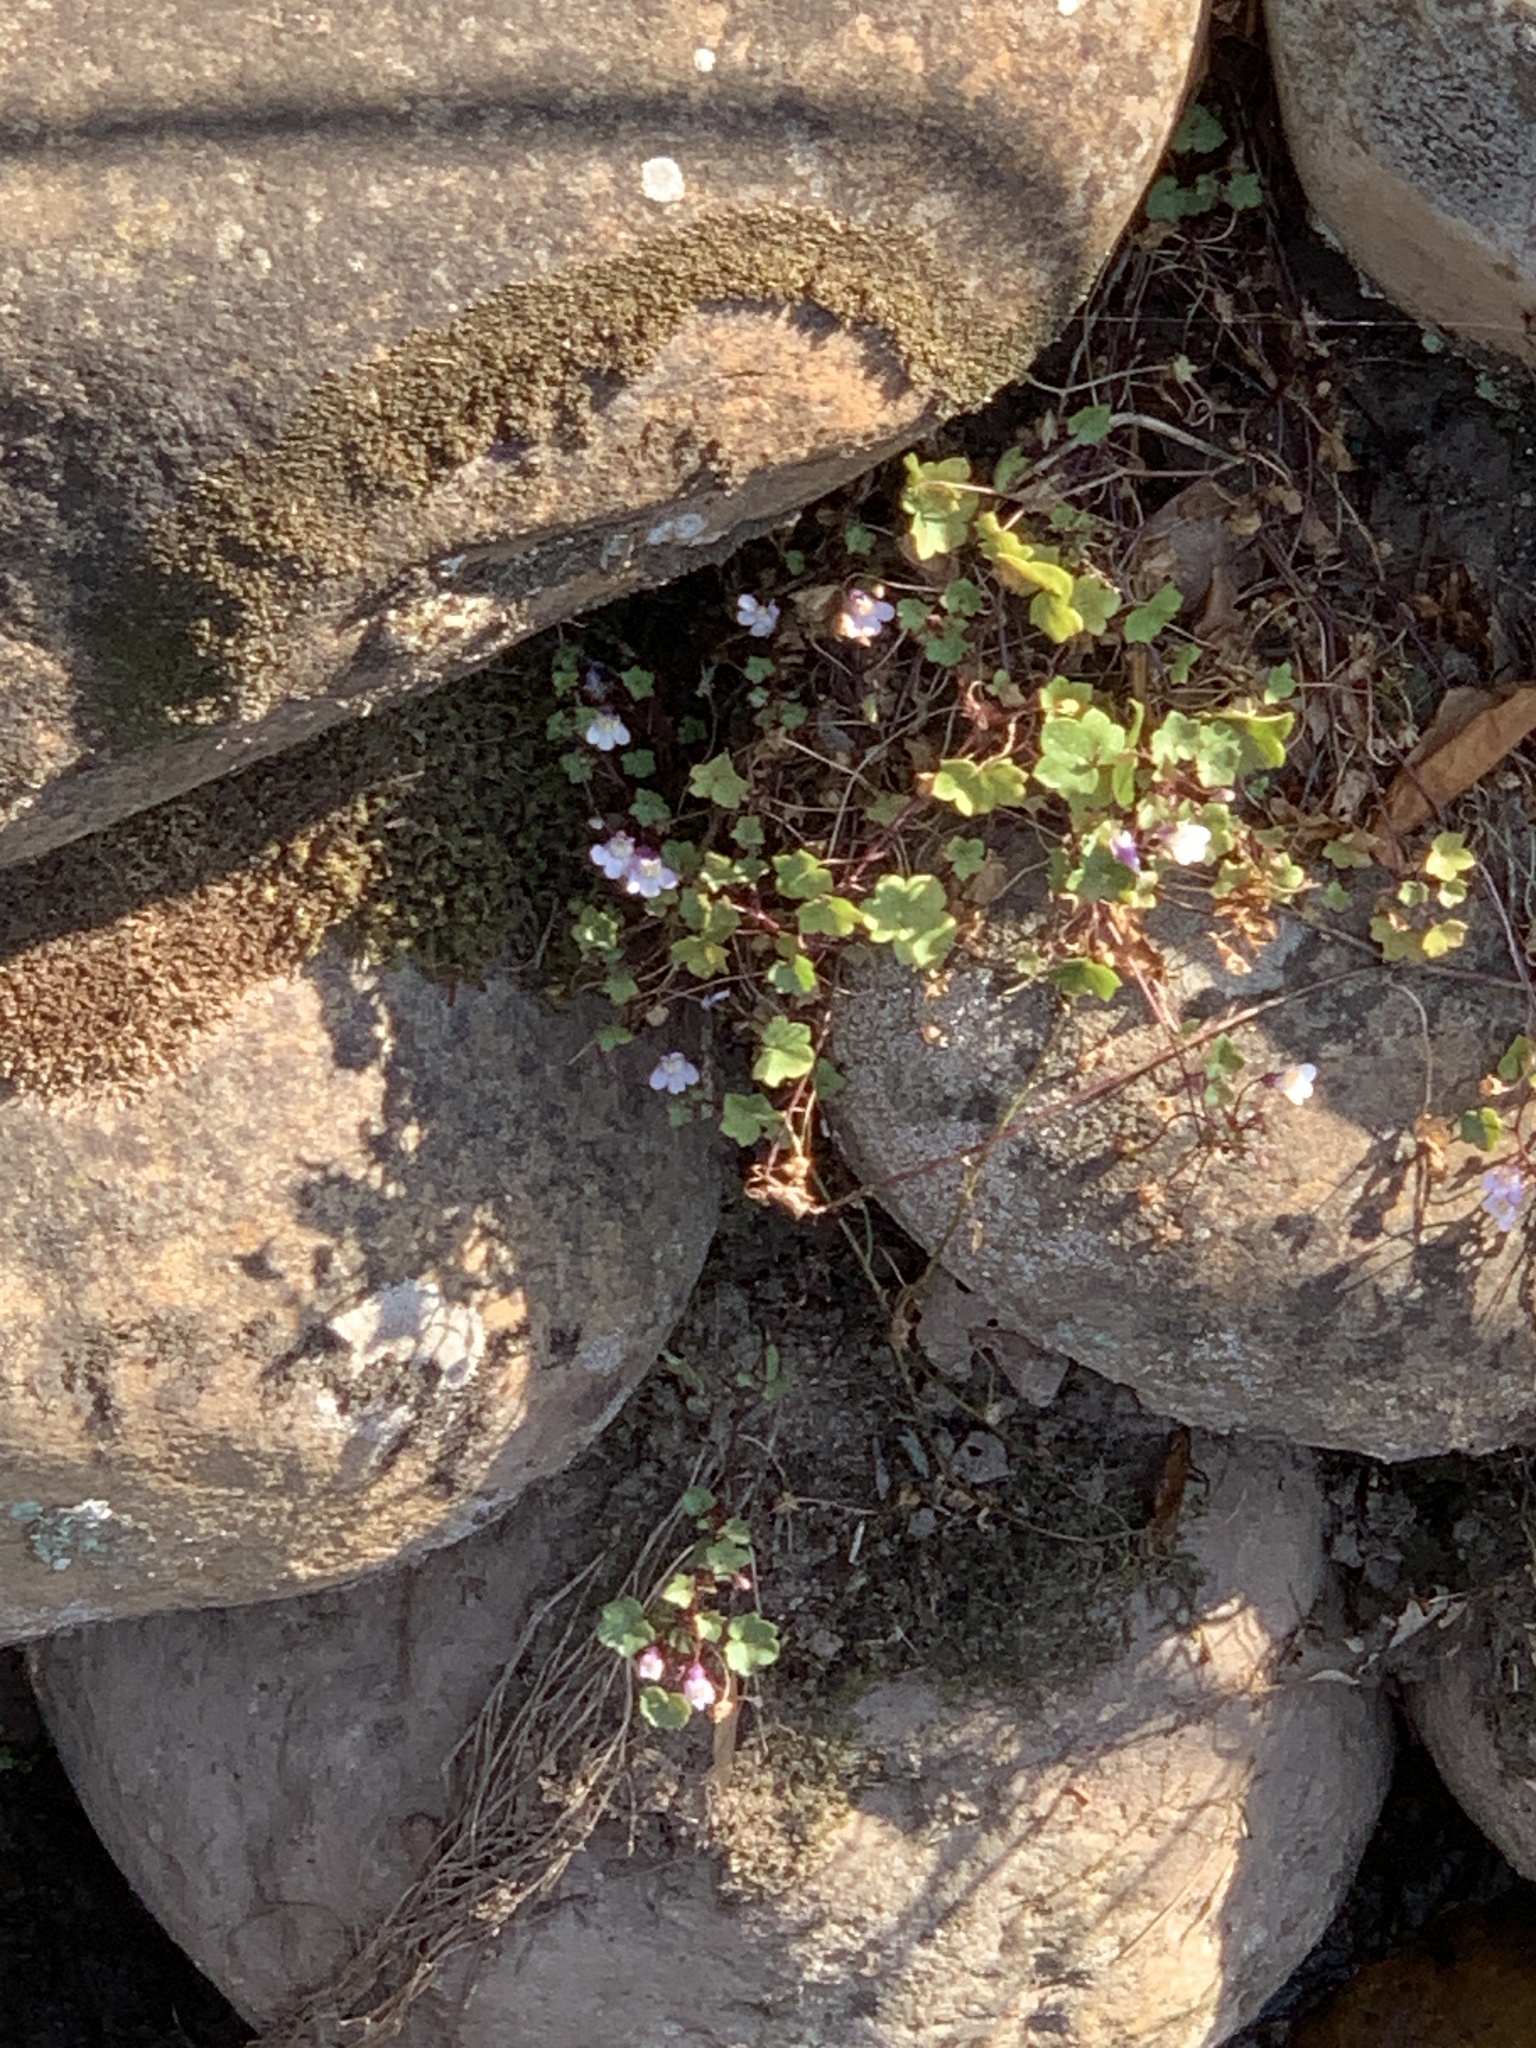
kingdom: Plantae
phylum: Tracheophyta
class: Magnoliopsida
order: Lamiales
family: Plantaginaceae
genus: Cymbalaria
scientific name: Cymbalaria muralis
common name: Ivy-leaved toadflax
